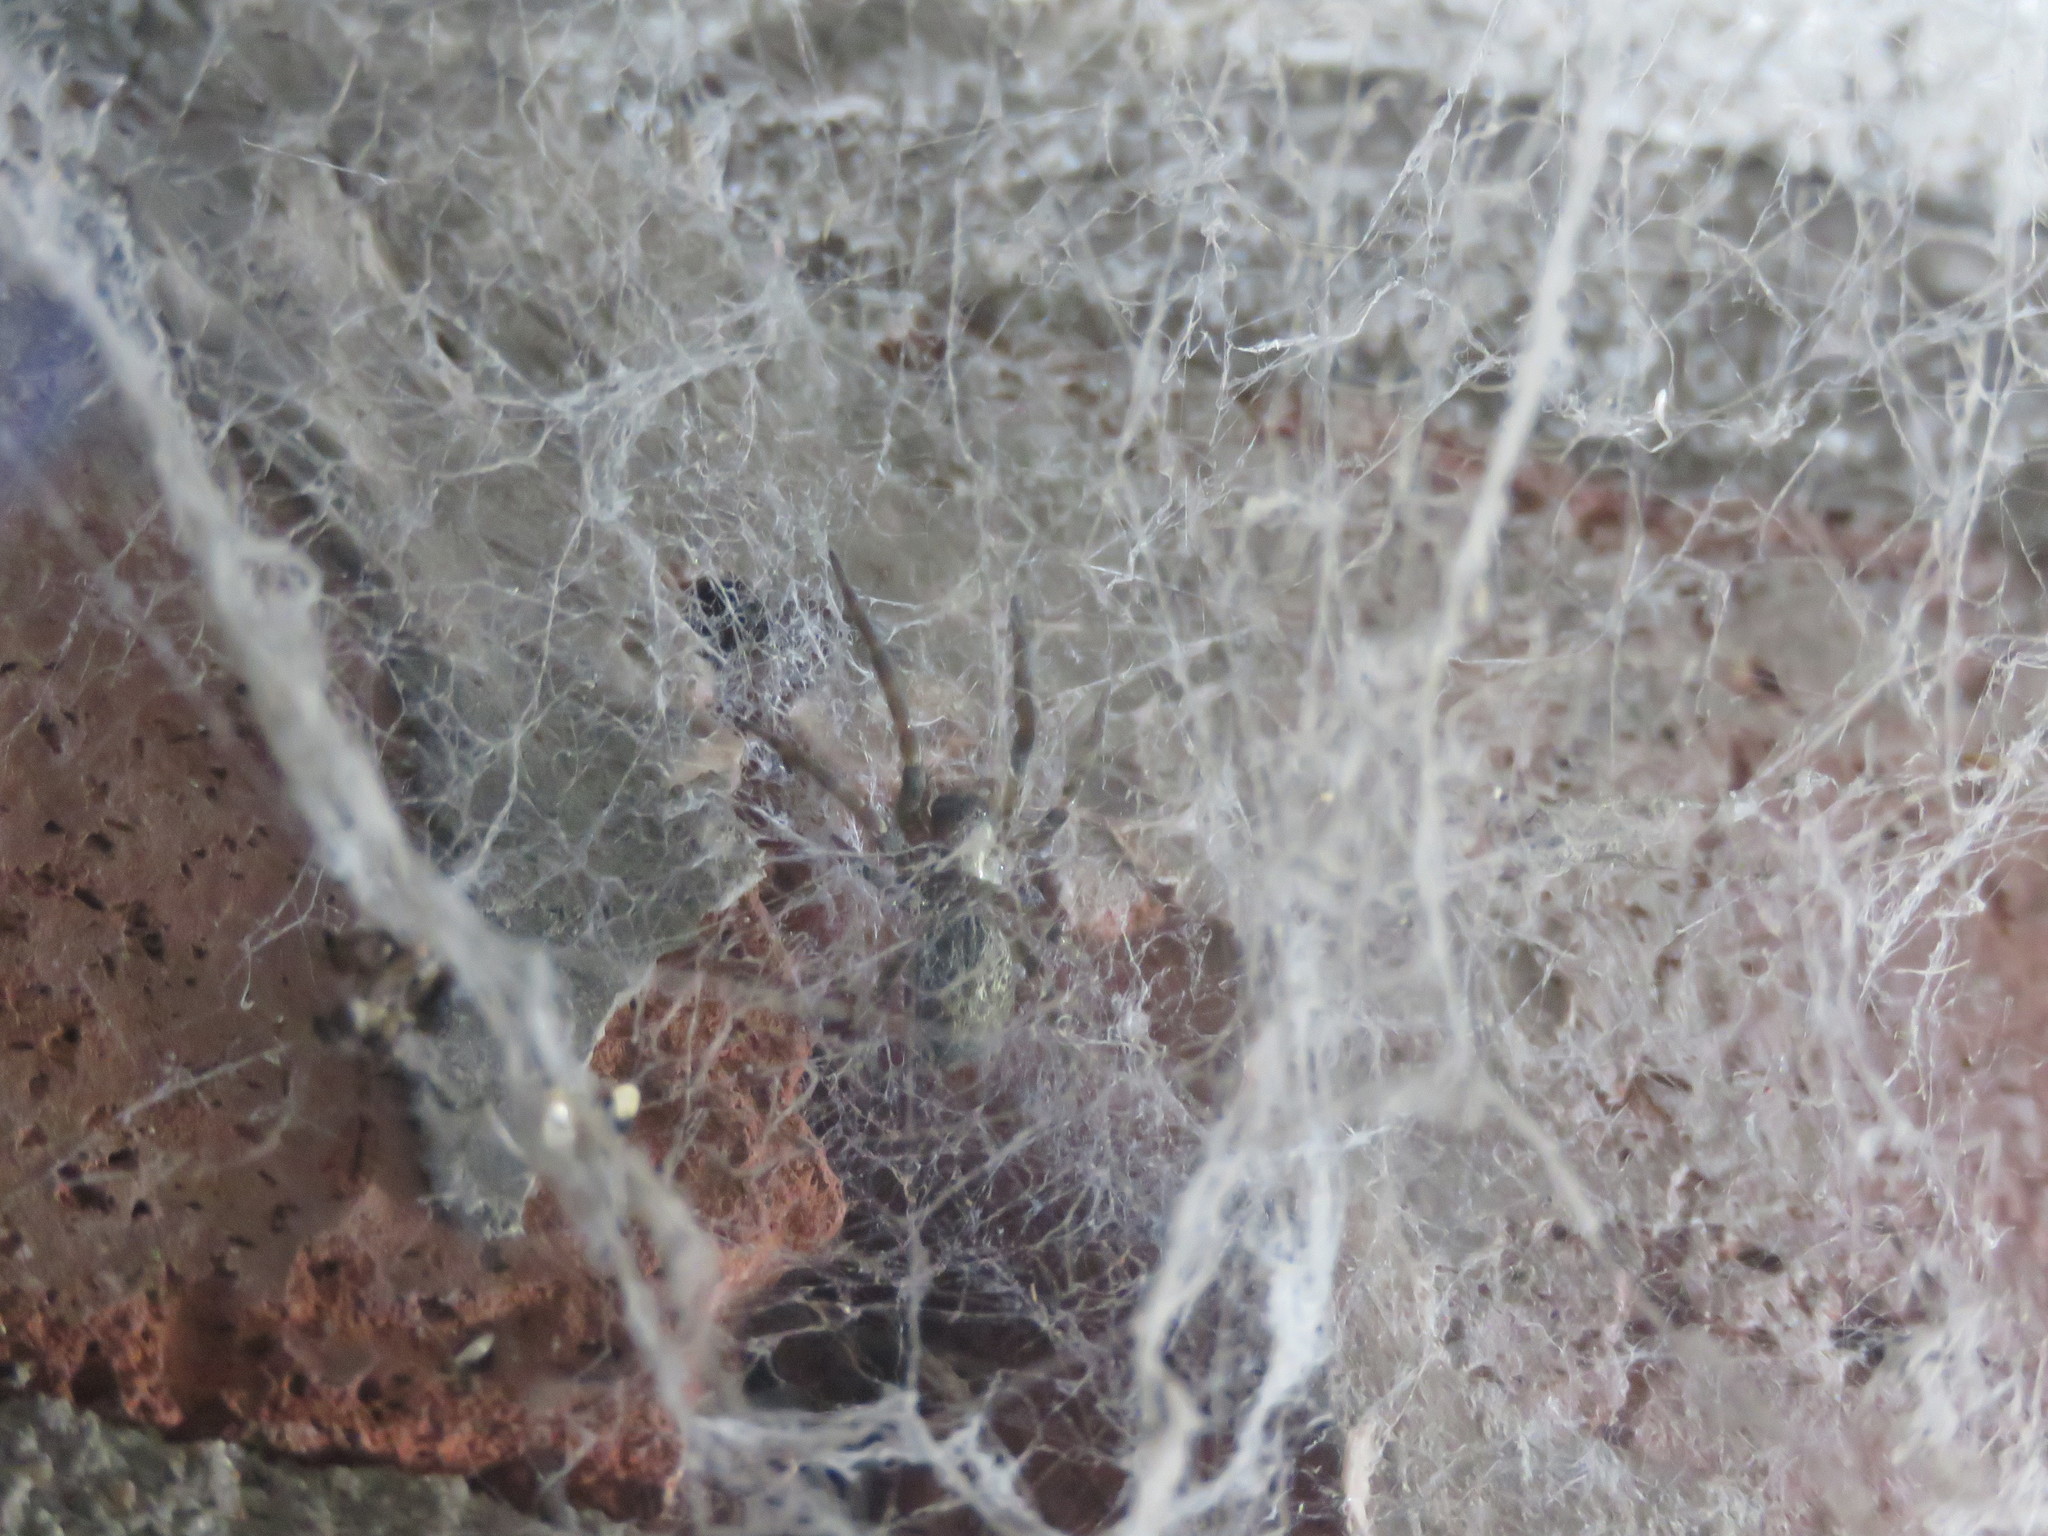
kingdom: Animalia
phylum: Arthropoda
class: Arachnida
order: Araneae
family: Desidae
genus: Badumna
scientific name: Badumna longinqua
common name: Gray house spider
